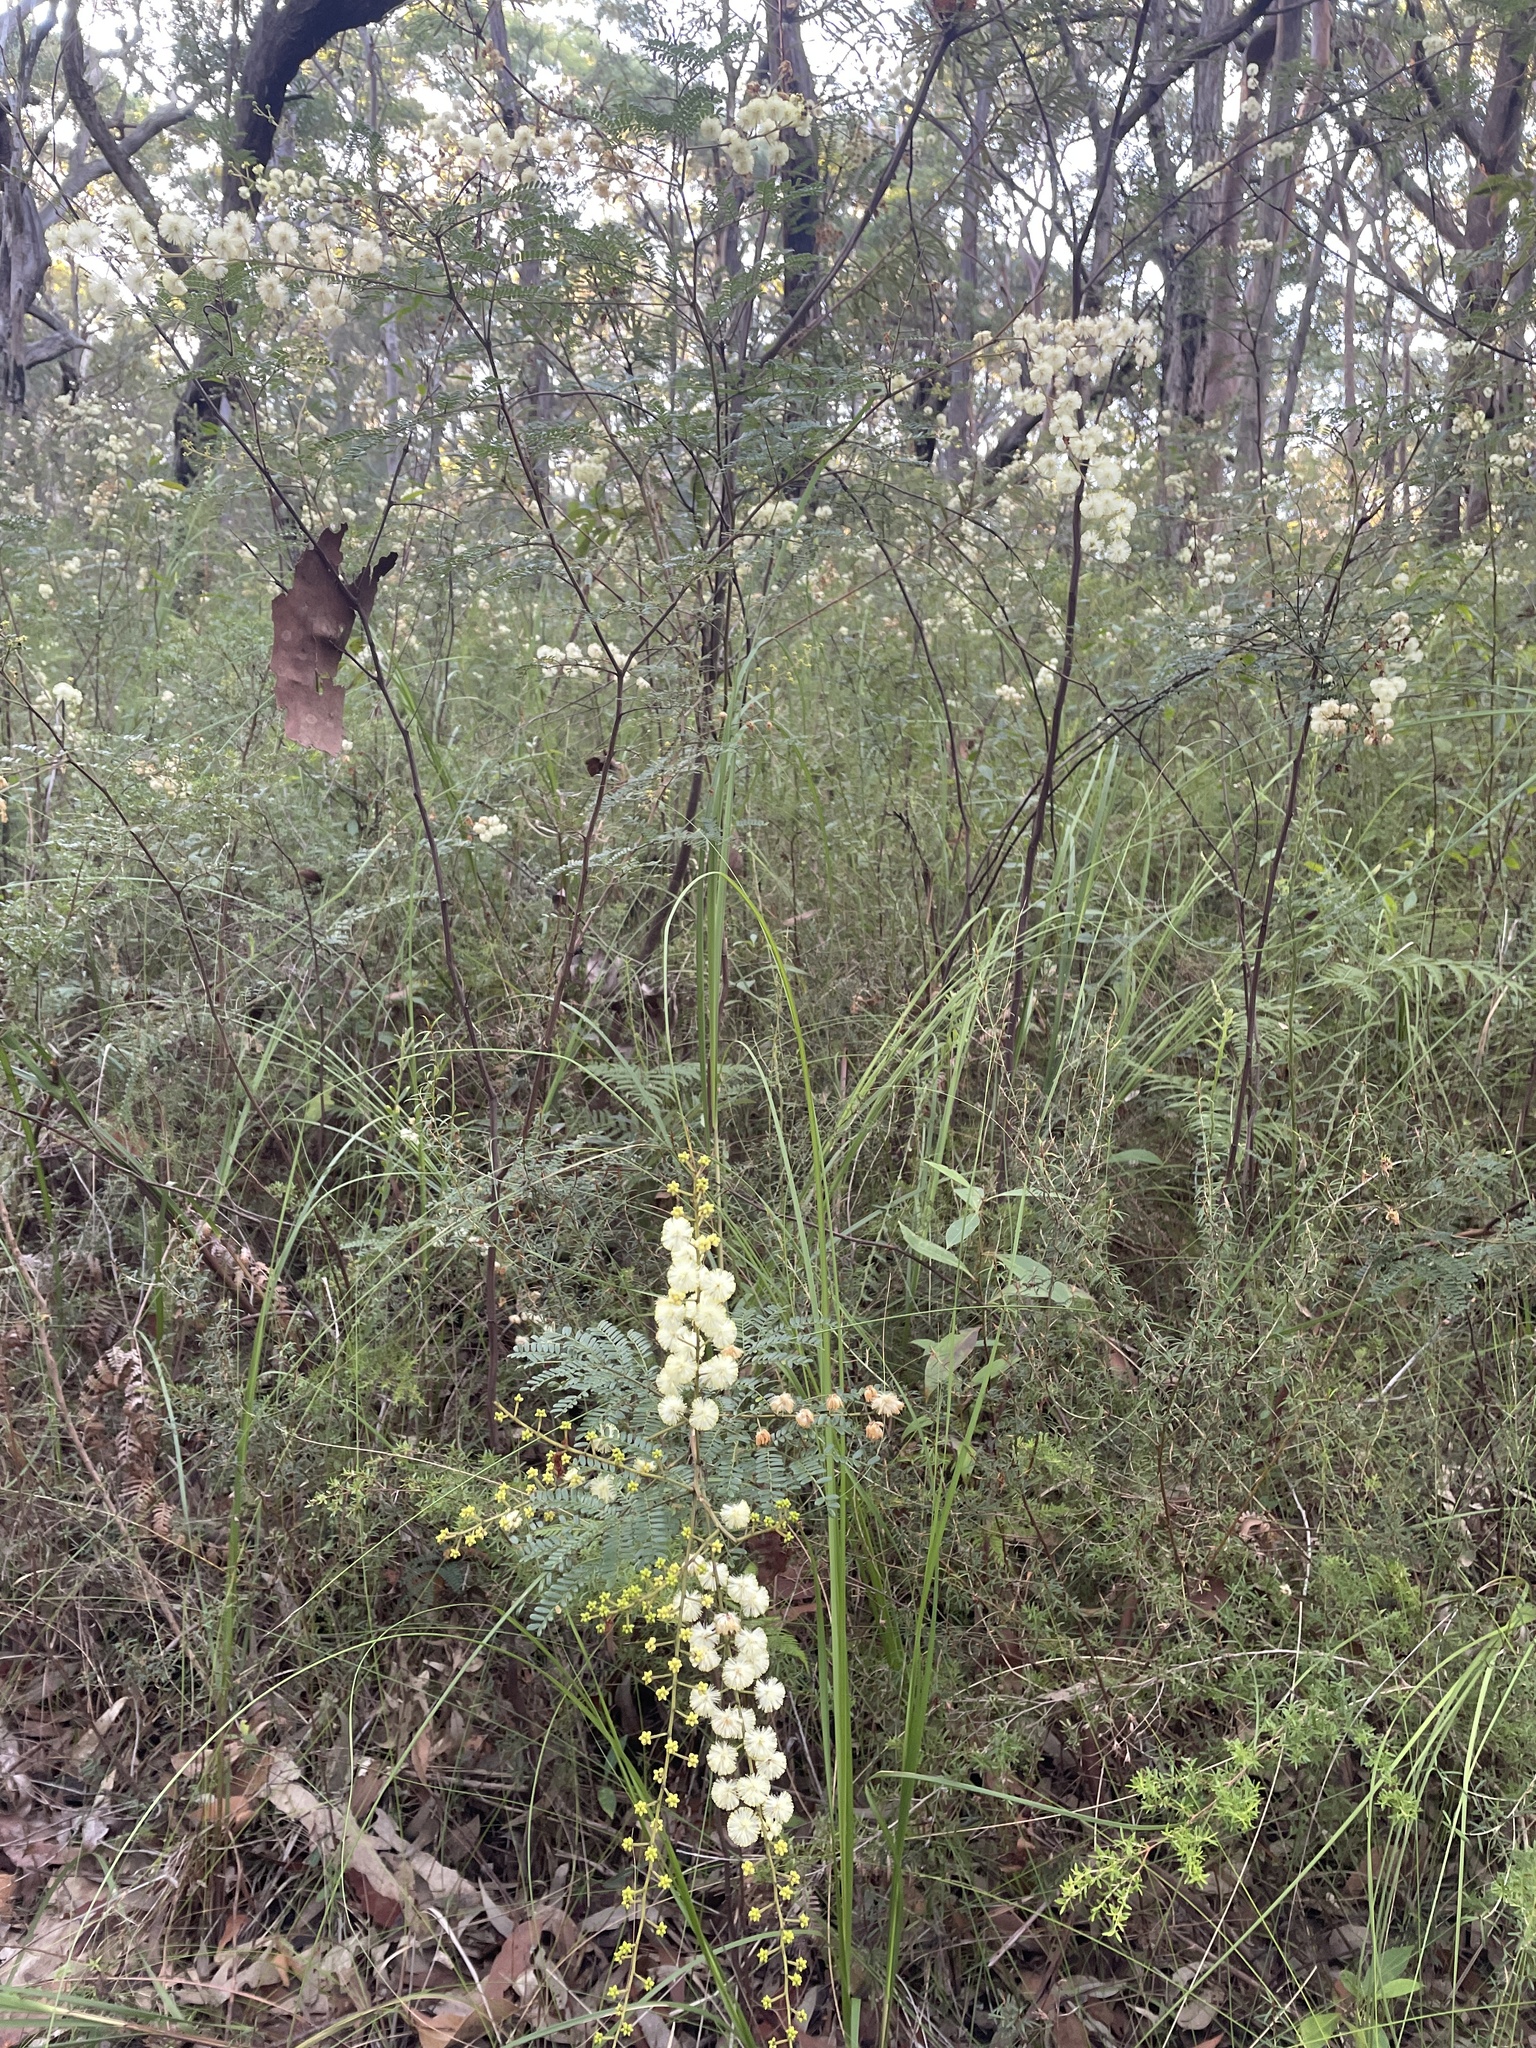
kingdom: Plantae
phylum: Tracheophyta
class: Magnoliopsida
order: Fabales
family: Fabaceae
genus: Acacia
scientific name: Acacia terminalis
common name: Cedar wattle
